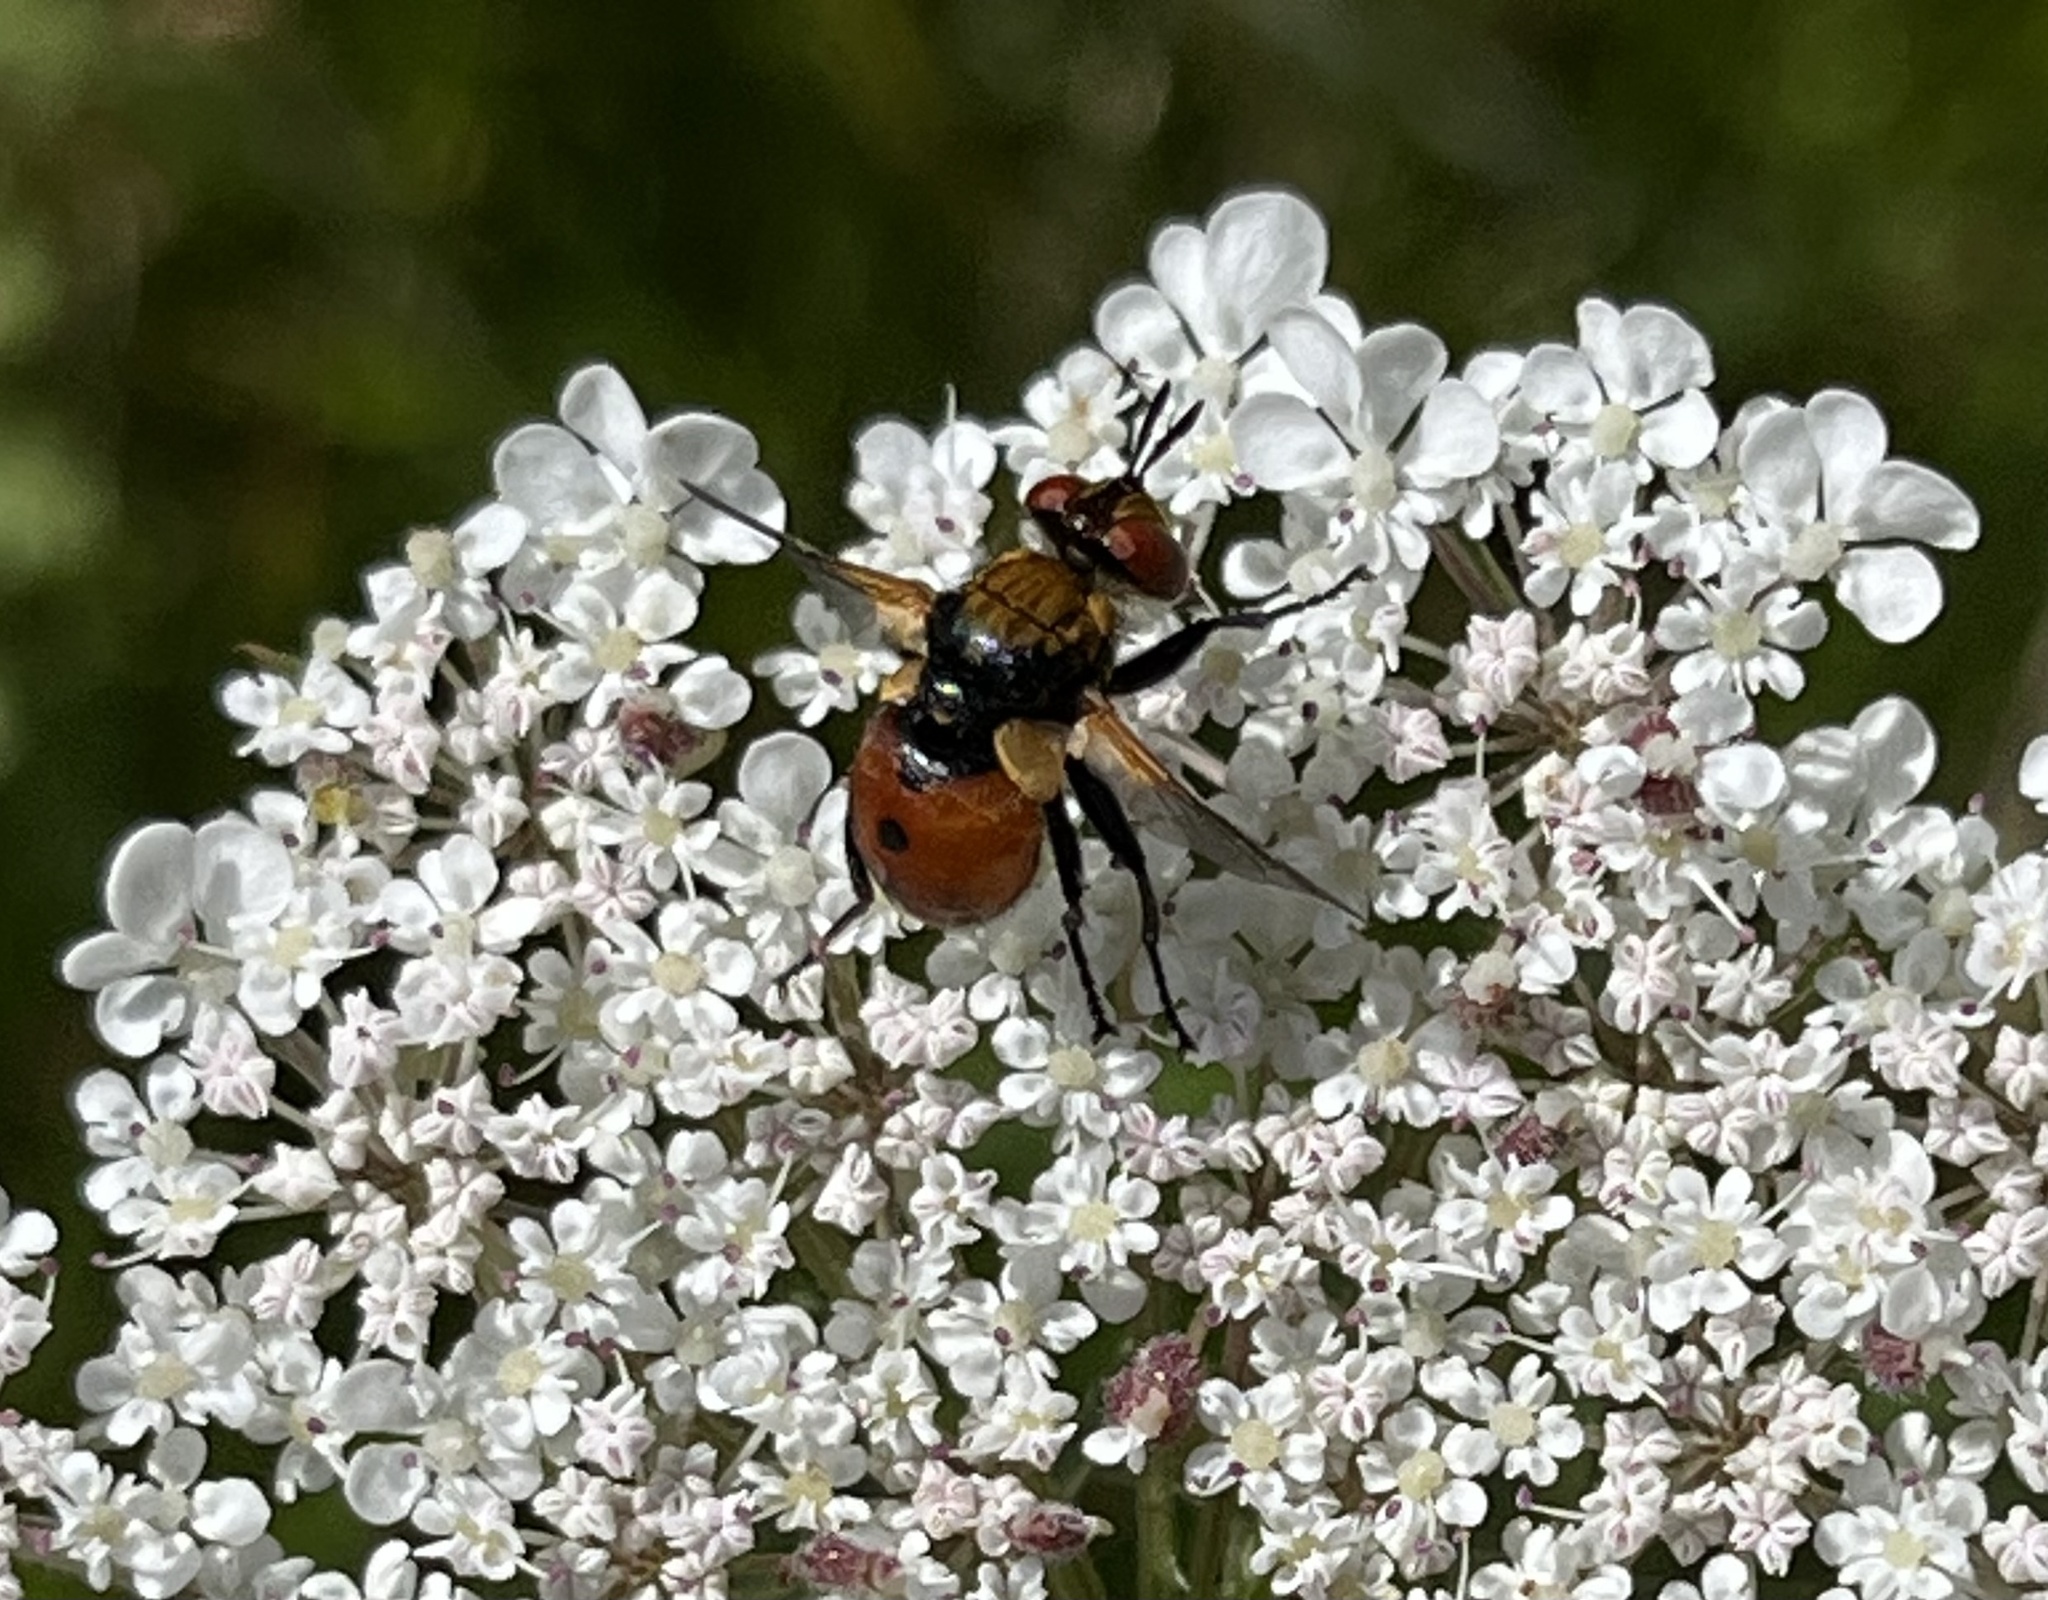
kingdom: Animalia
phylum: Arthropoda
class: Insecta
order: Diptera
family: Tachinidae
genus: Gymnosoma
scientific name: Gymnosoma rotundatum
